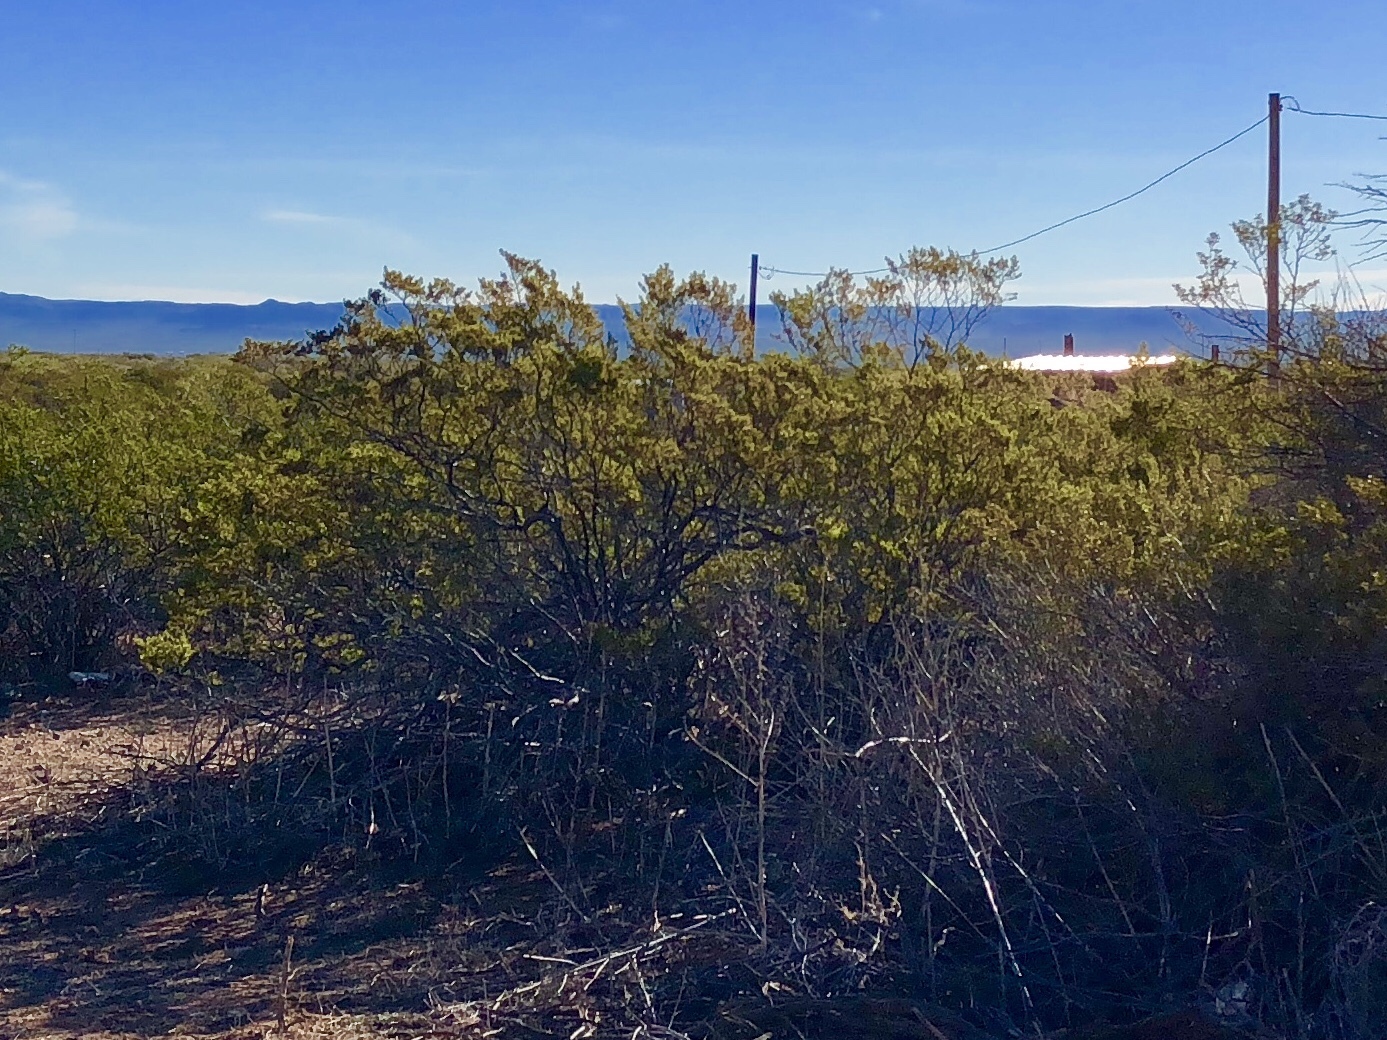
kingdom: Plantae
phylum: Tracheophyta
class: Magnoliopsida
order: Zygophyllales
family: Zygophyllaceae
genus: Larrea
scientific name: Larrea tridentata
